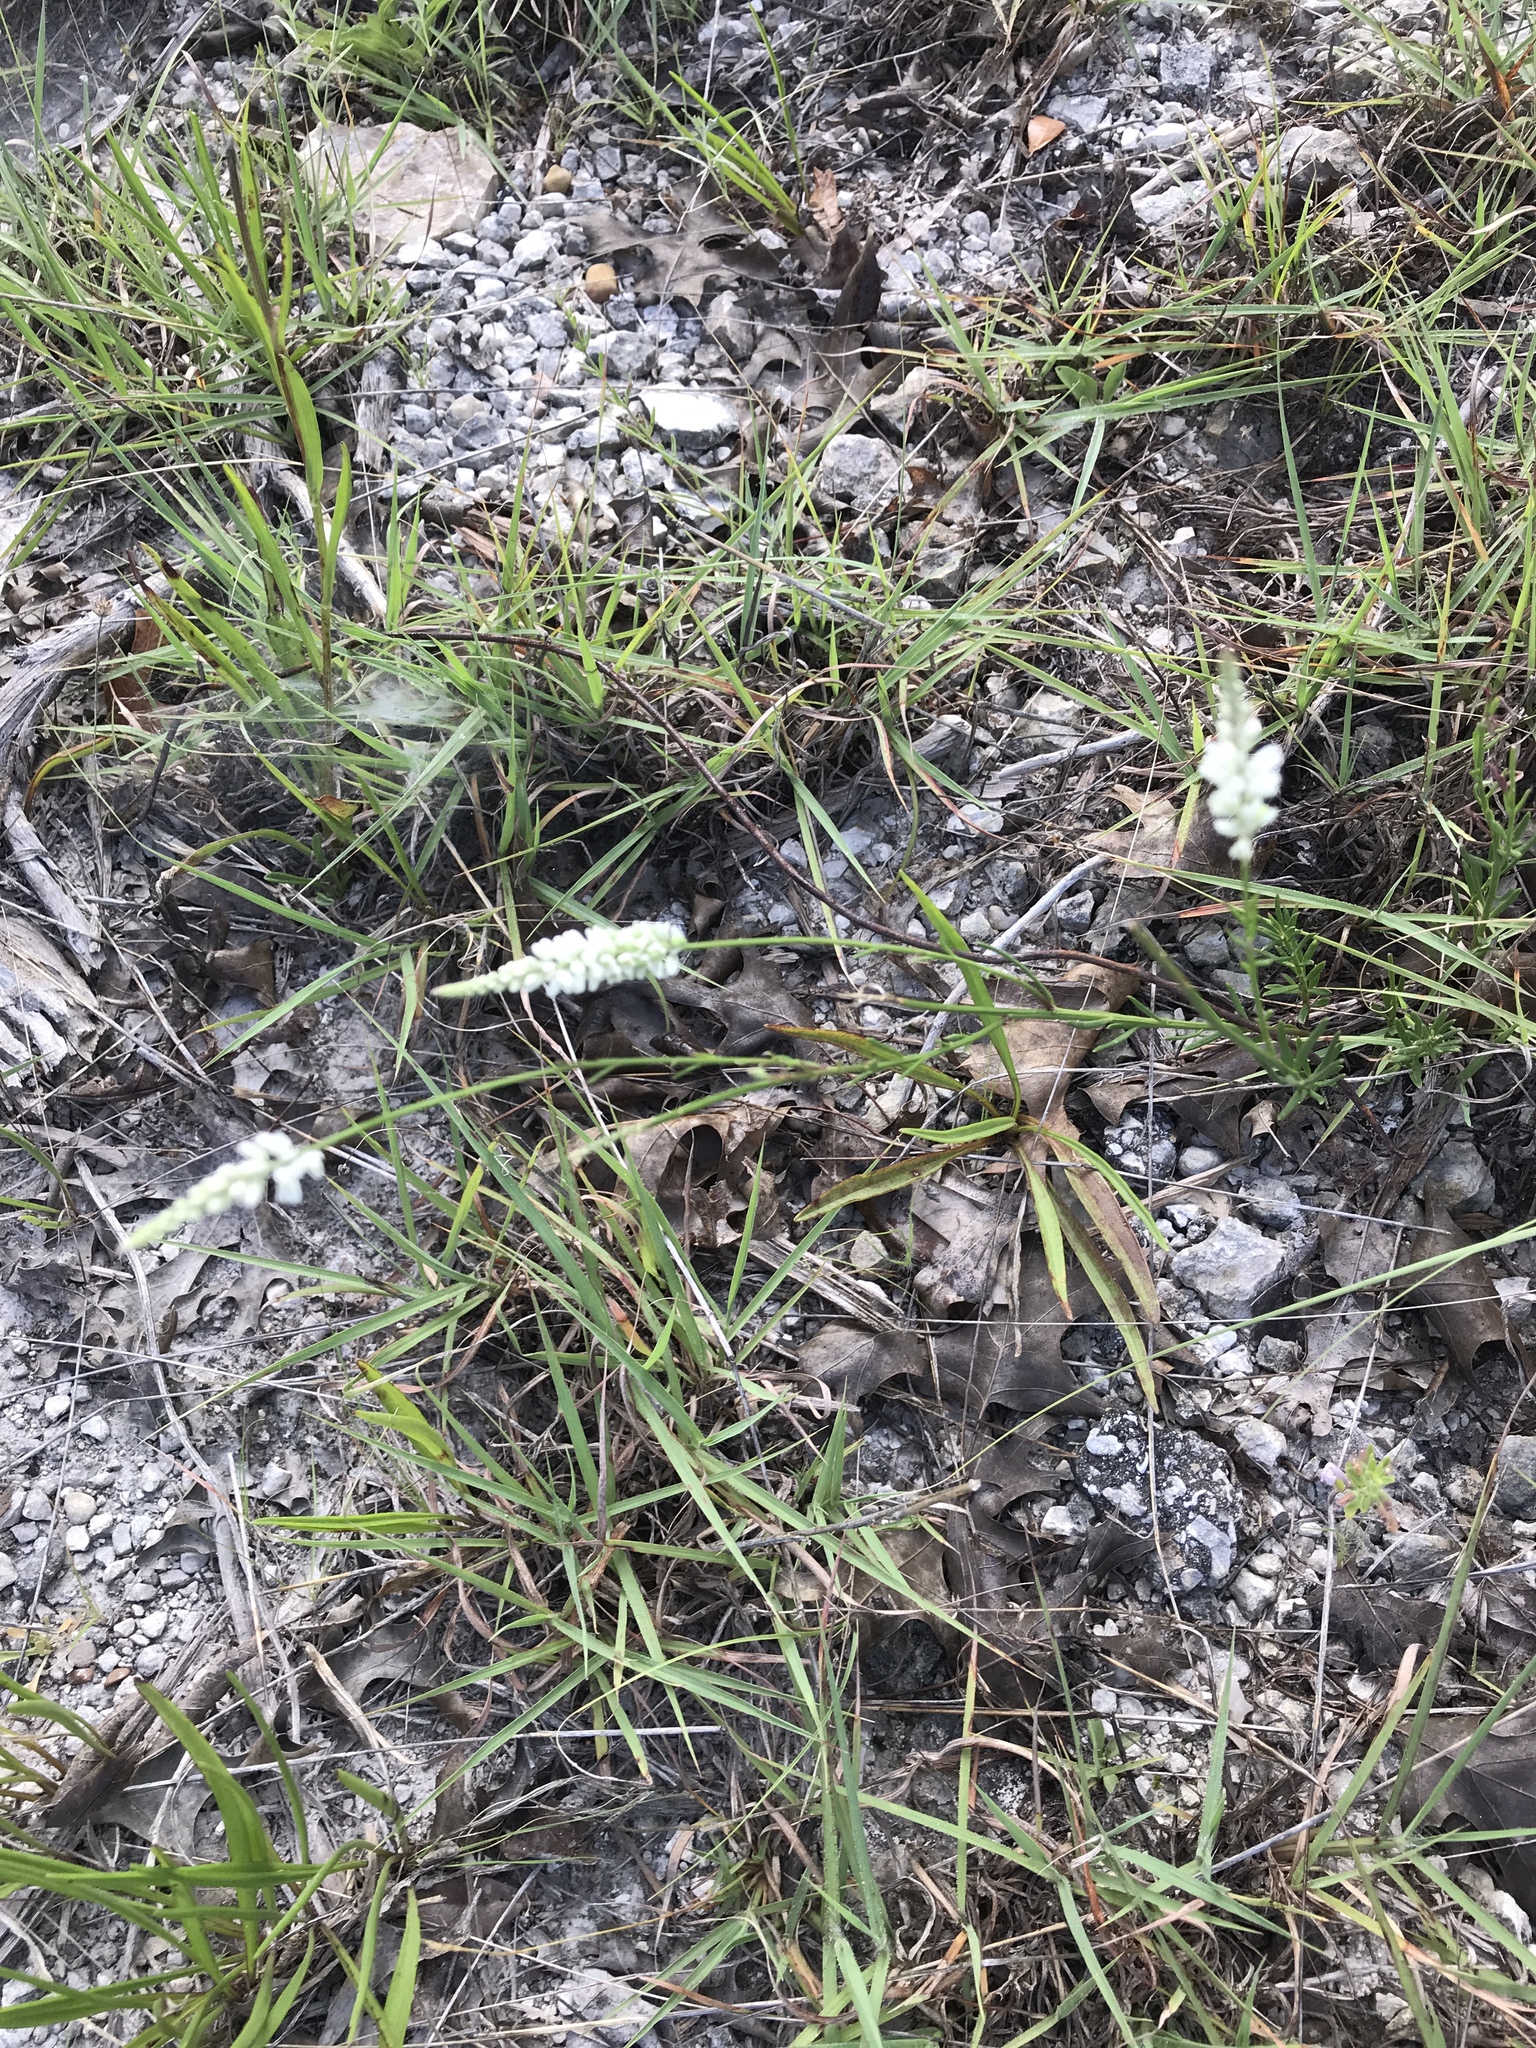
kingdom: Plantae
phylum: Tracheophyta
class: Magnoliopsida
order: Fabales
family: Polygalaceae
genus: Polygala
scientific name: Polygala alba
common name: White milkwort
